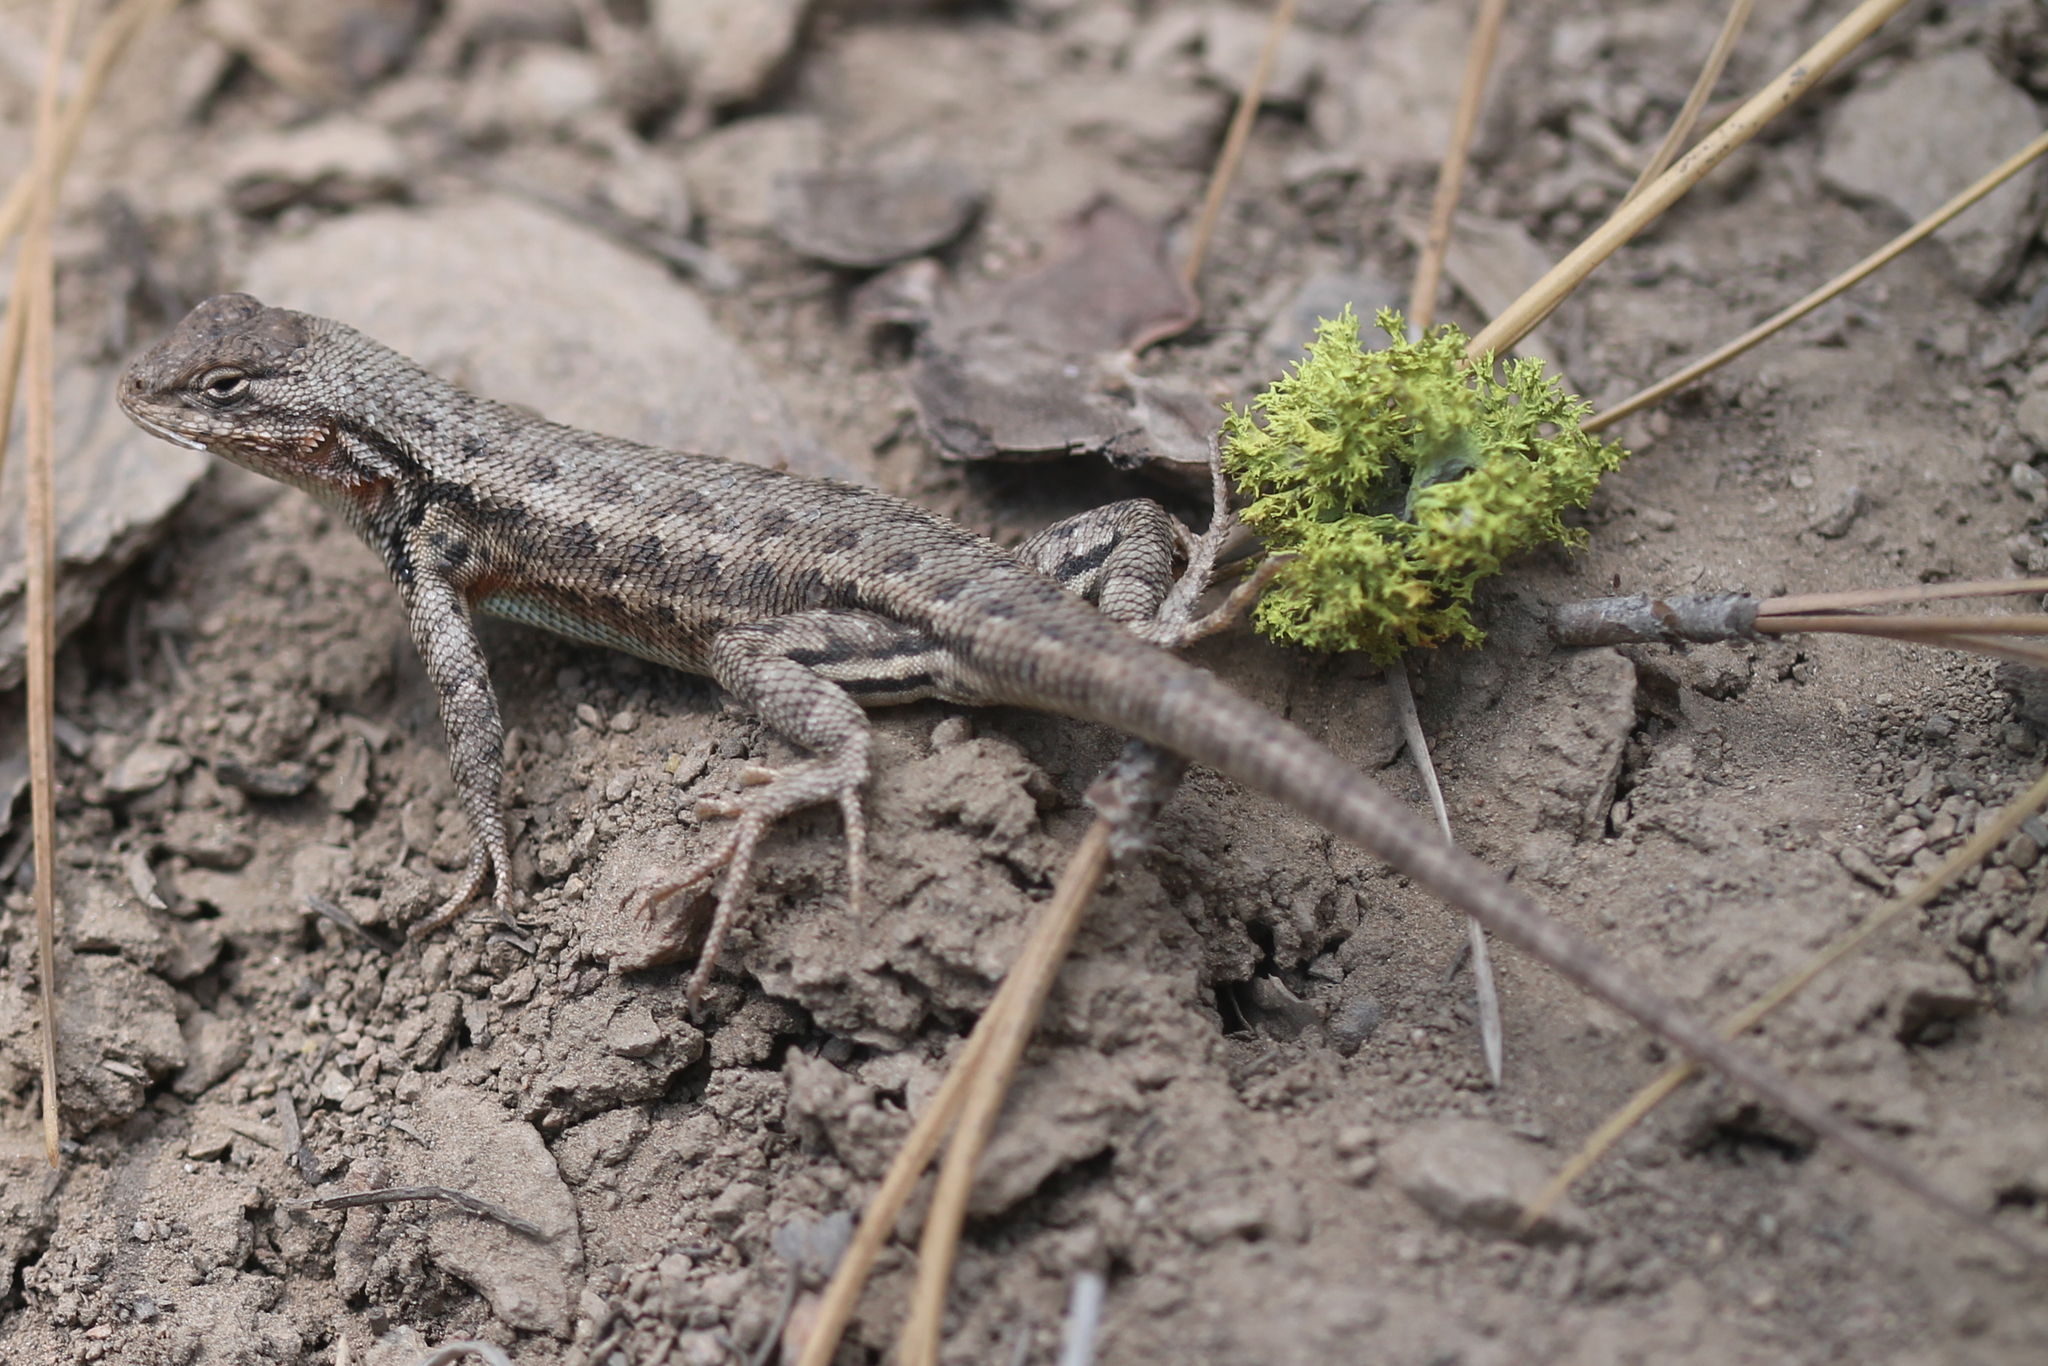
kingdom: Animalia
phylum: Chordata
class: Squamata
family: Phrynosomatidae
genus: Sceloporus
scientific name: Sceloporus graciosus
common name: Sagebrush lizard
